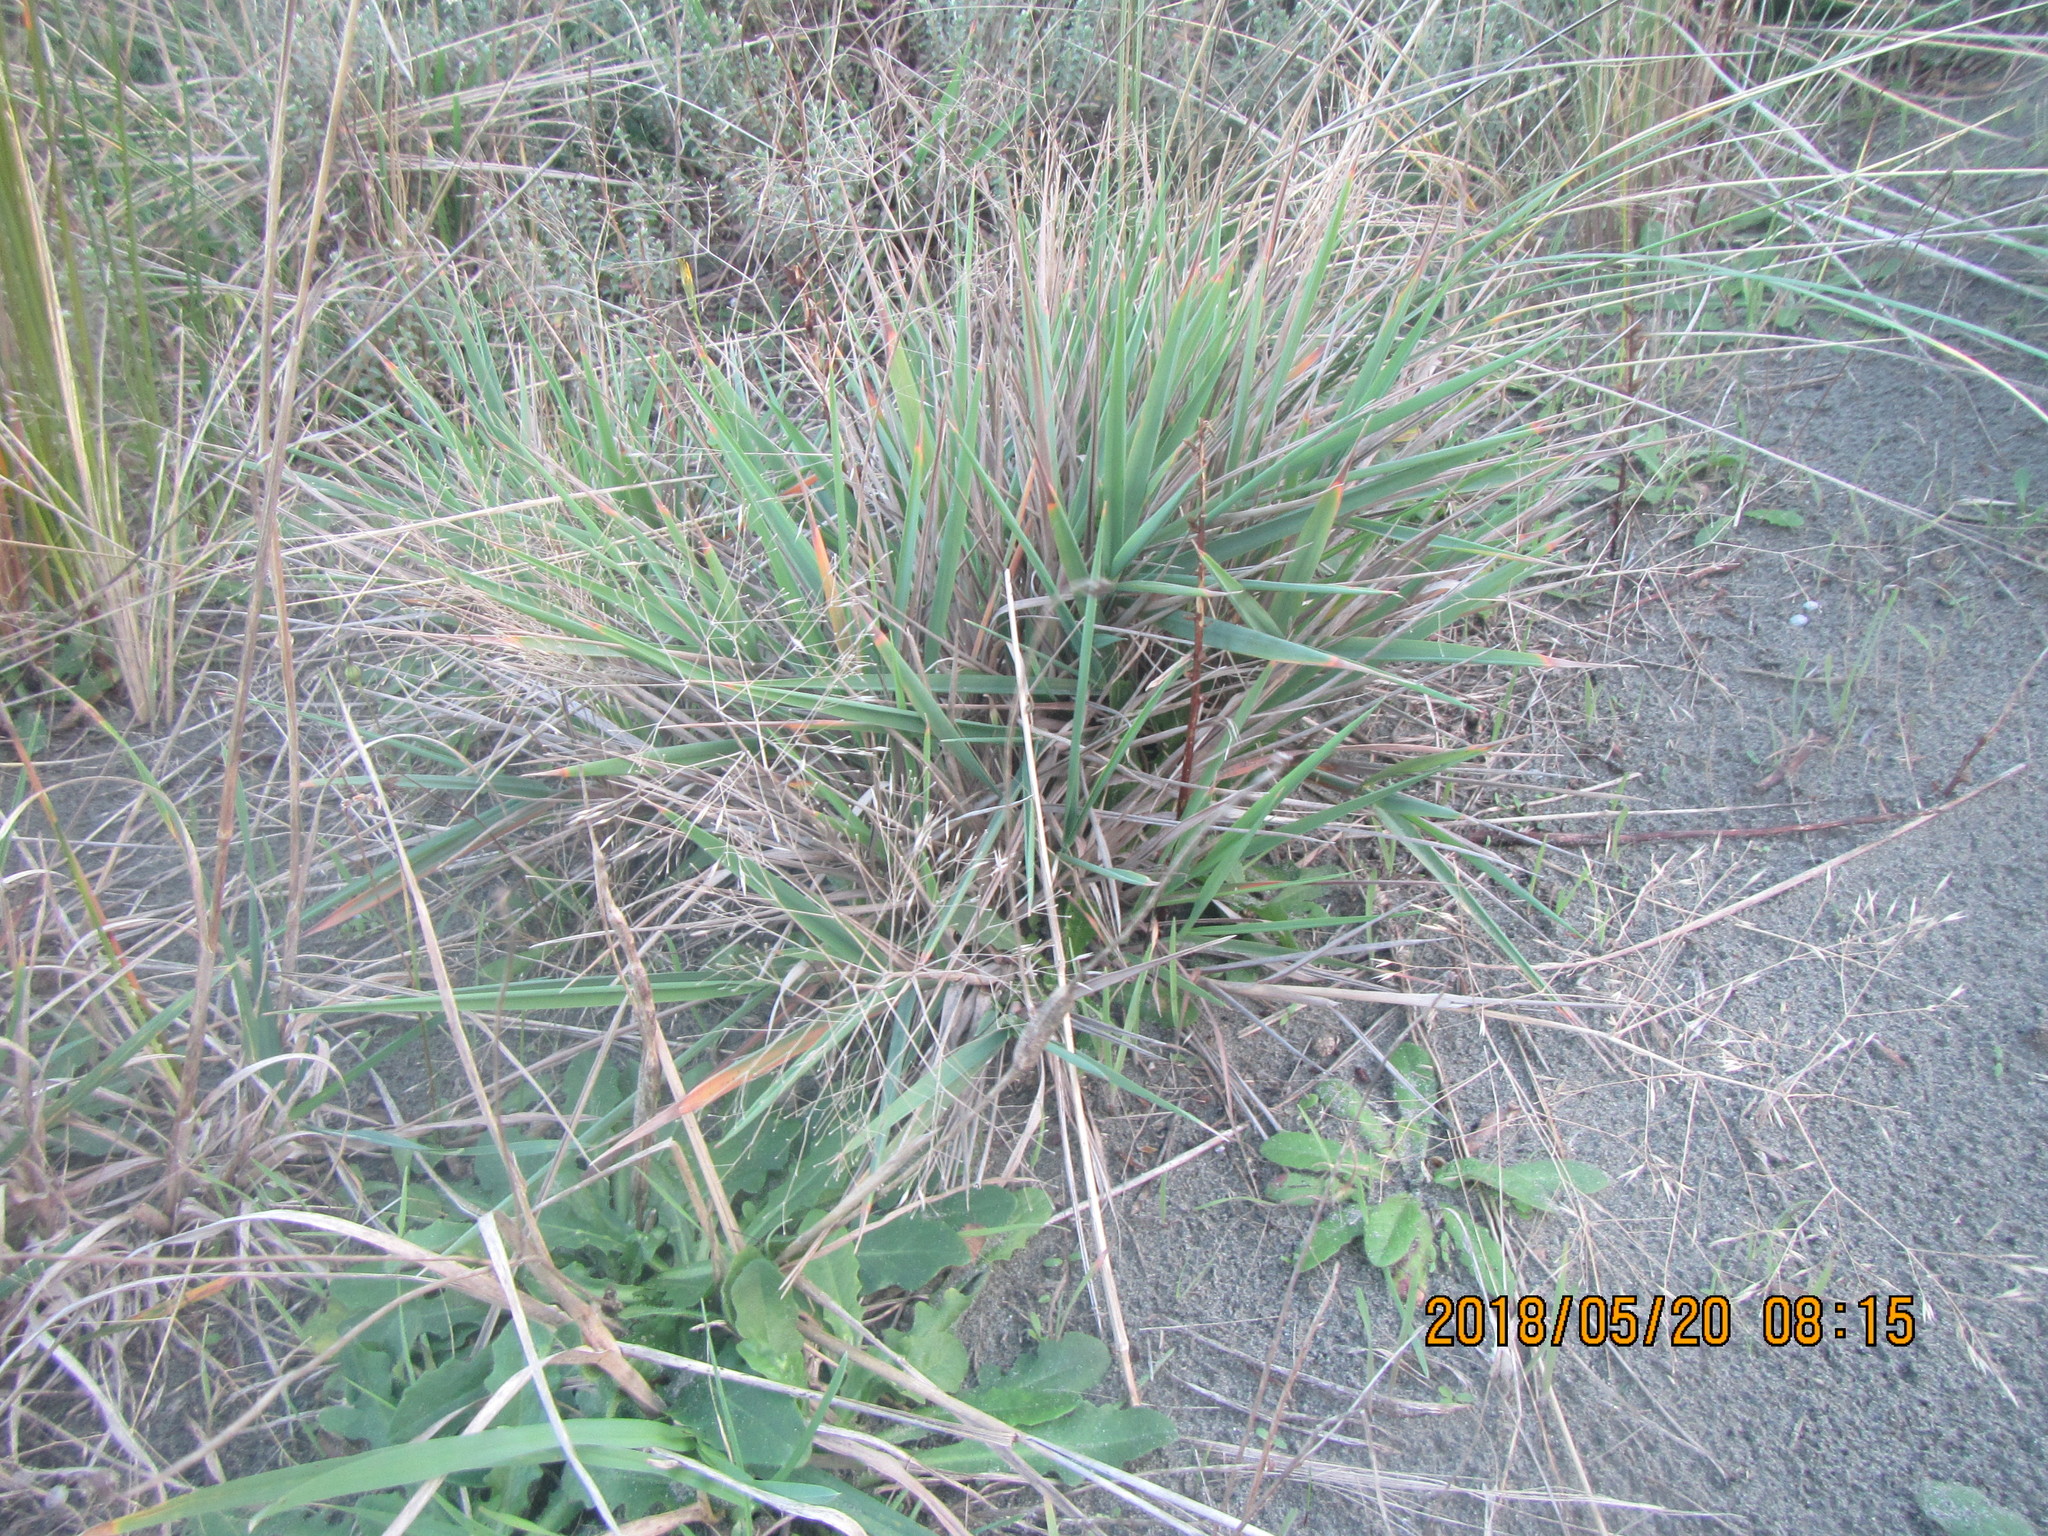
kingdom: Plantae
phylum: Tracheophyta
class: Liliopsida
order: Poales
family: Poaceae
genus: Lachnagrostis
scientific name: Lachnagrostis billardierei
